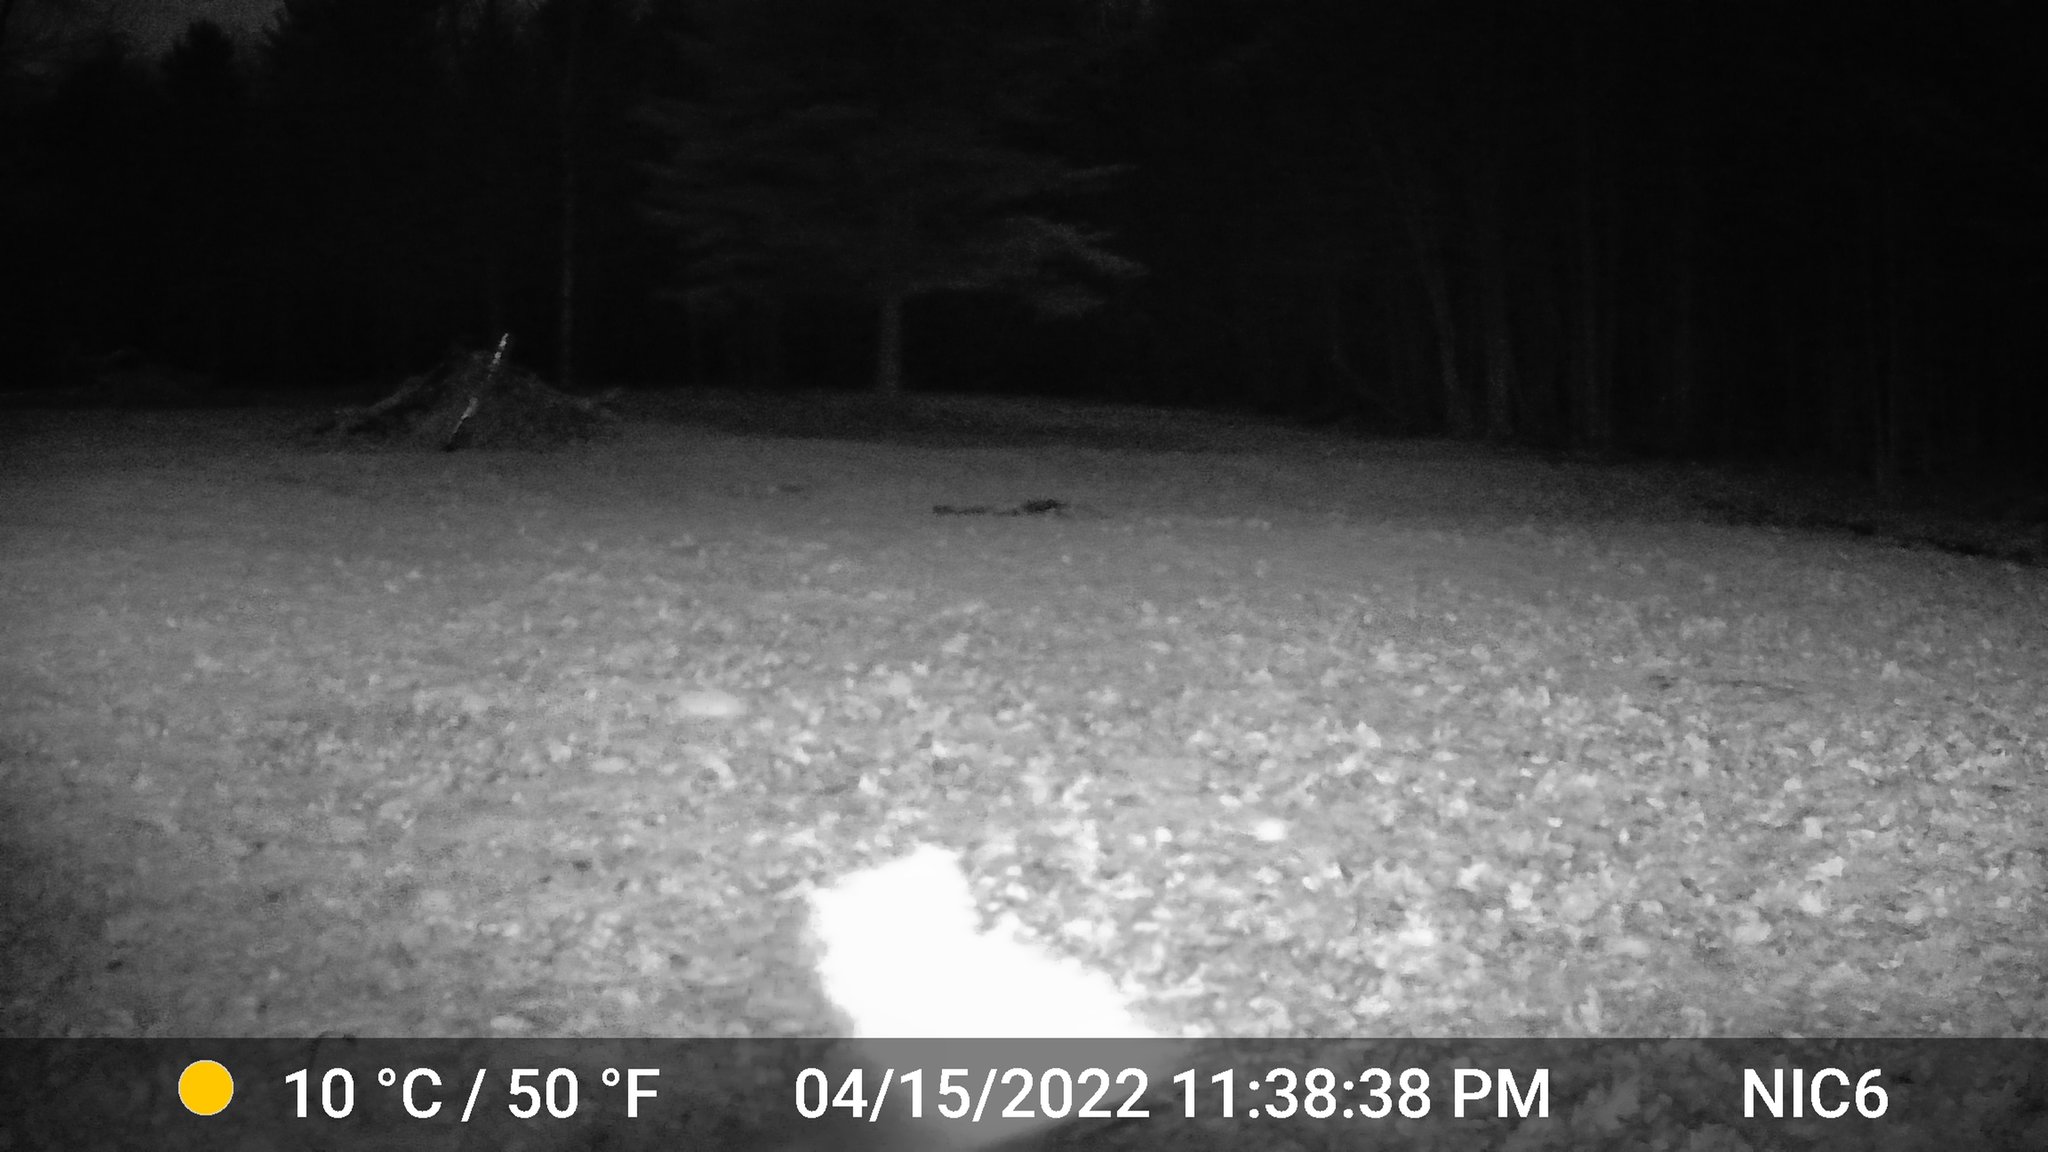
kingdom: Animalia
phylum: Chordata
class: Mammalia
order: Artiodactyla
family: Cervidae
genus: Odocoileus
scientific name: Odocoileus virginianus
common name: White-tailed deer
